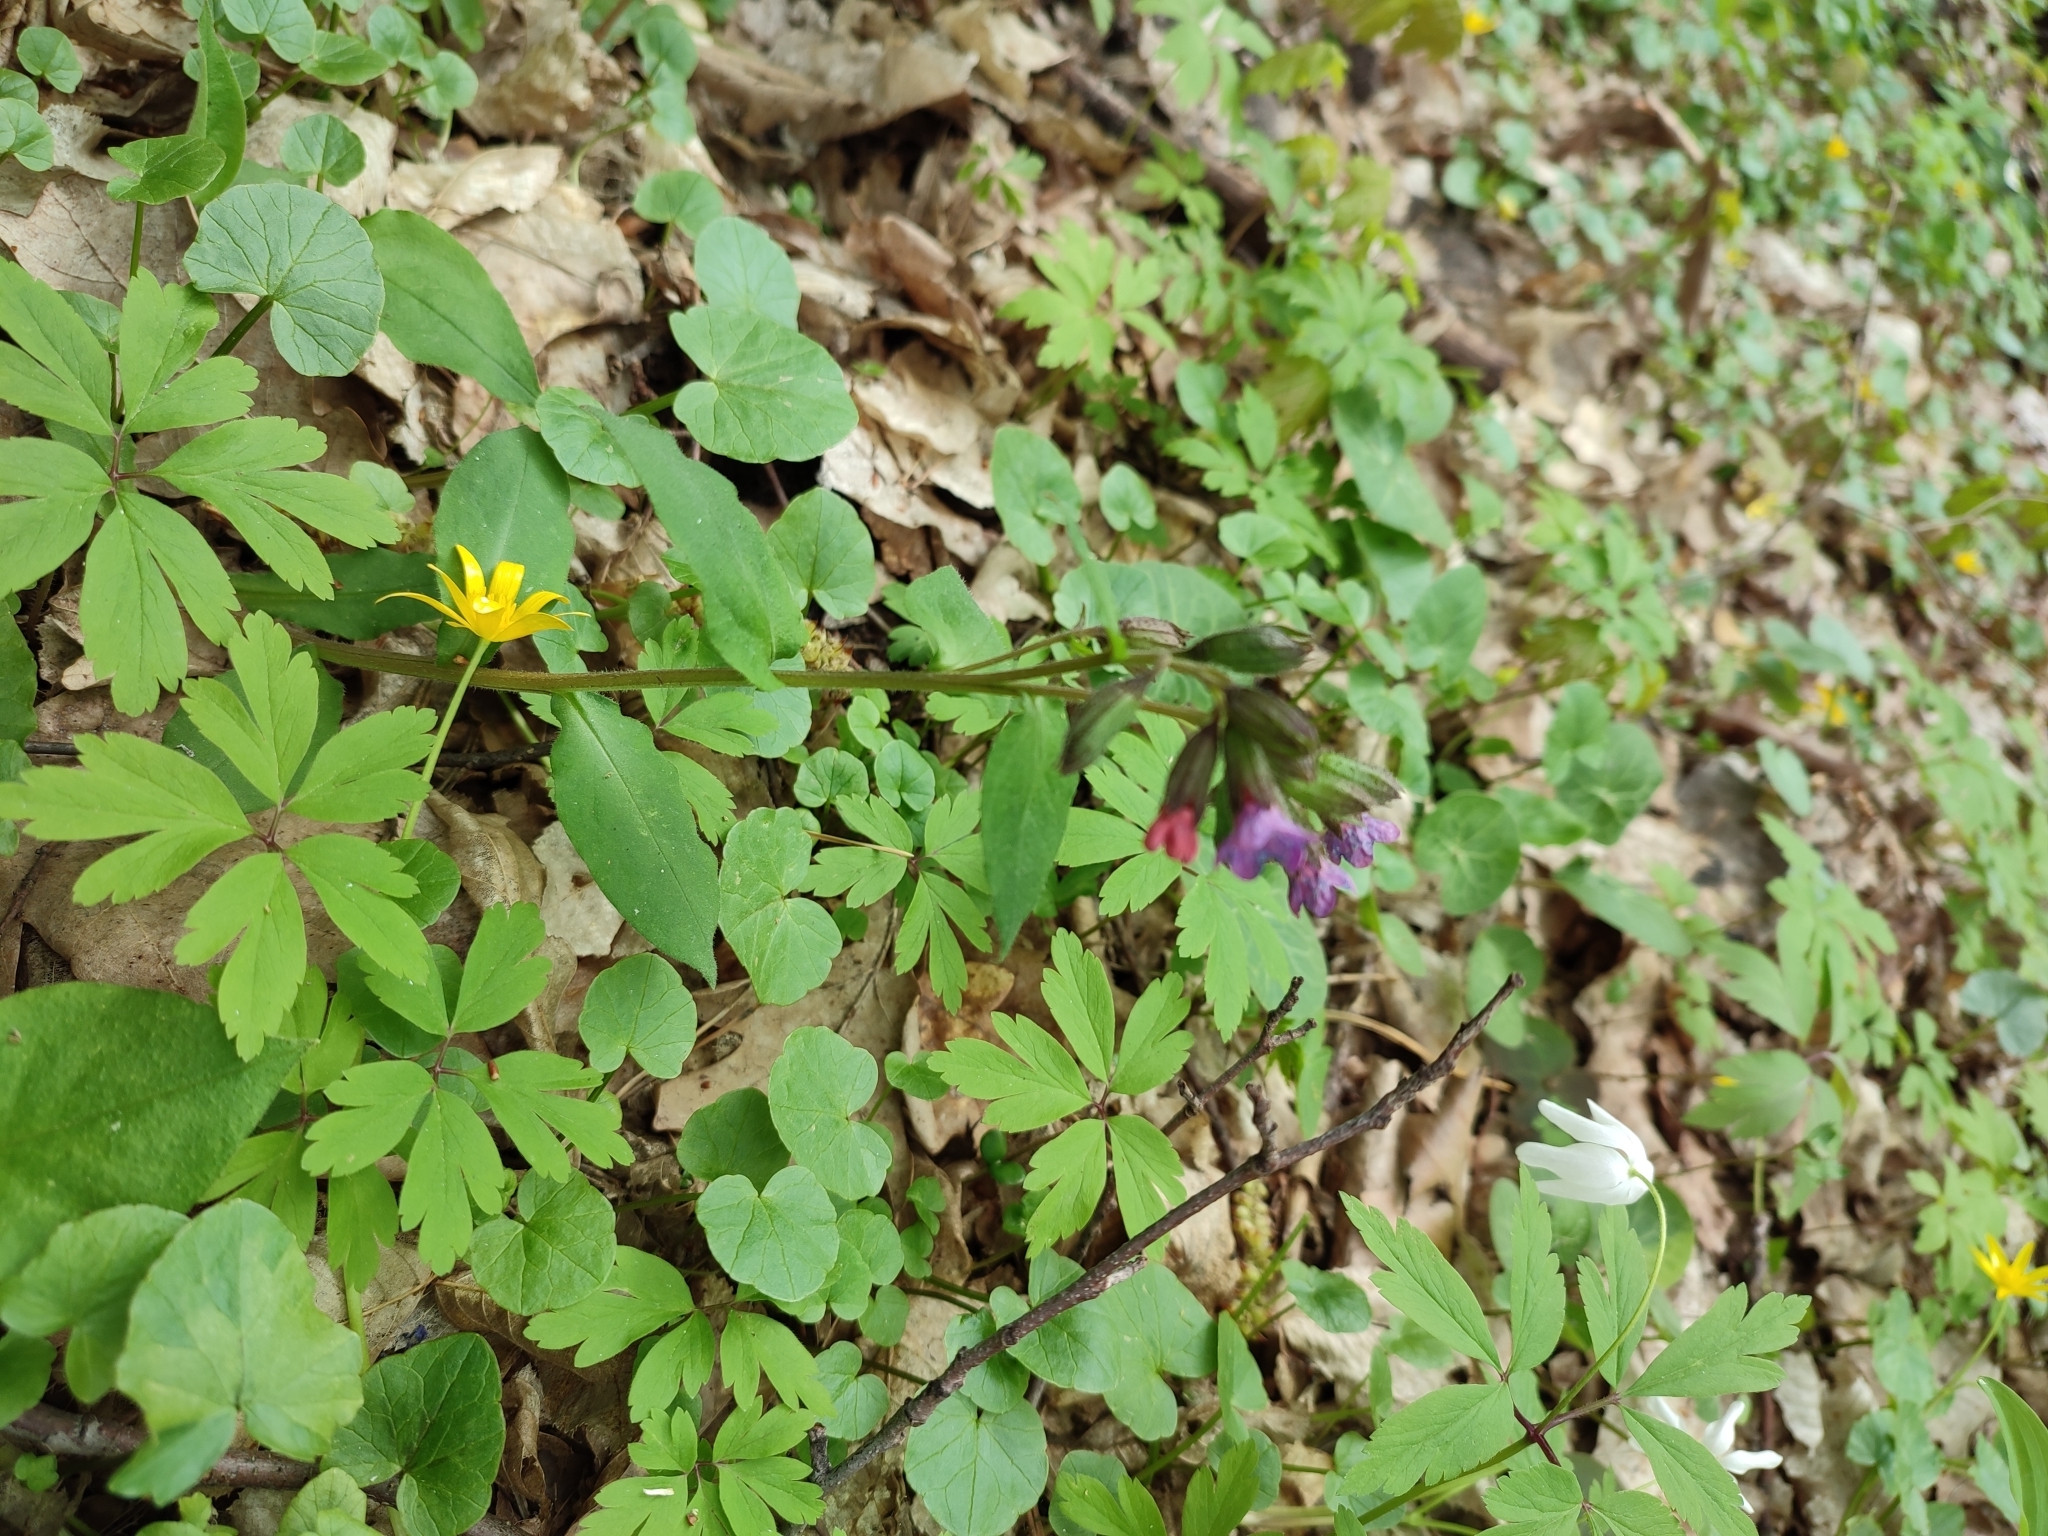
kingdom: Plantae
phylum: Tracheophyta
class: Magnoliopsida
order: Boraginales
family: Boraginaceae
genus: Pulmonaria
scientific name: Pulmonaria obscura
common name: Suffolk lungwort
